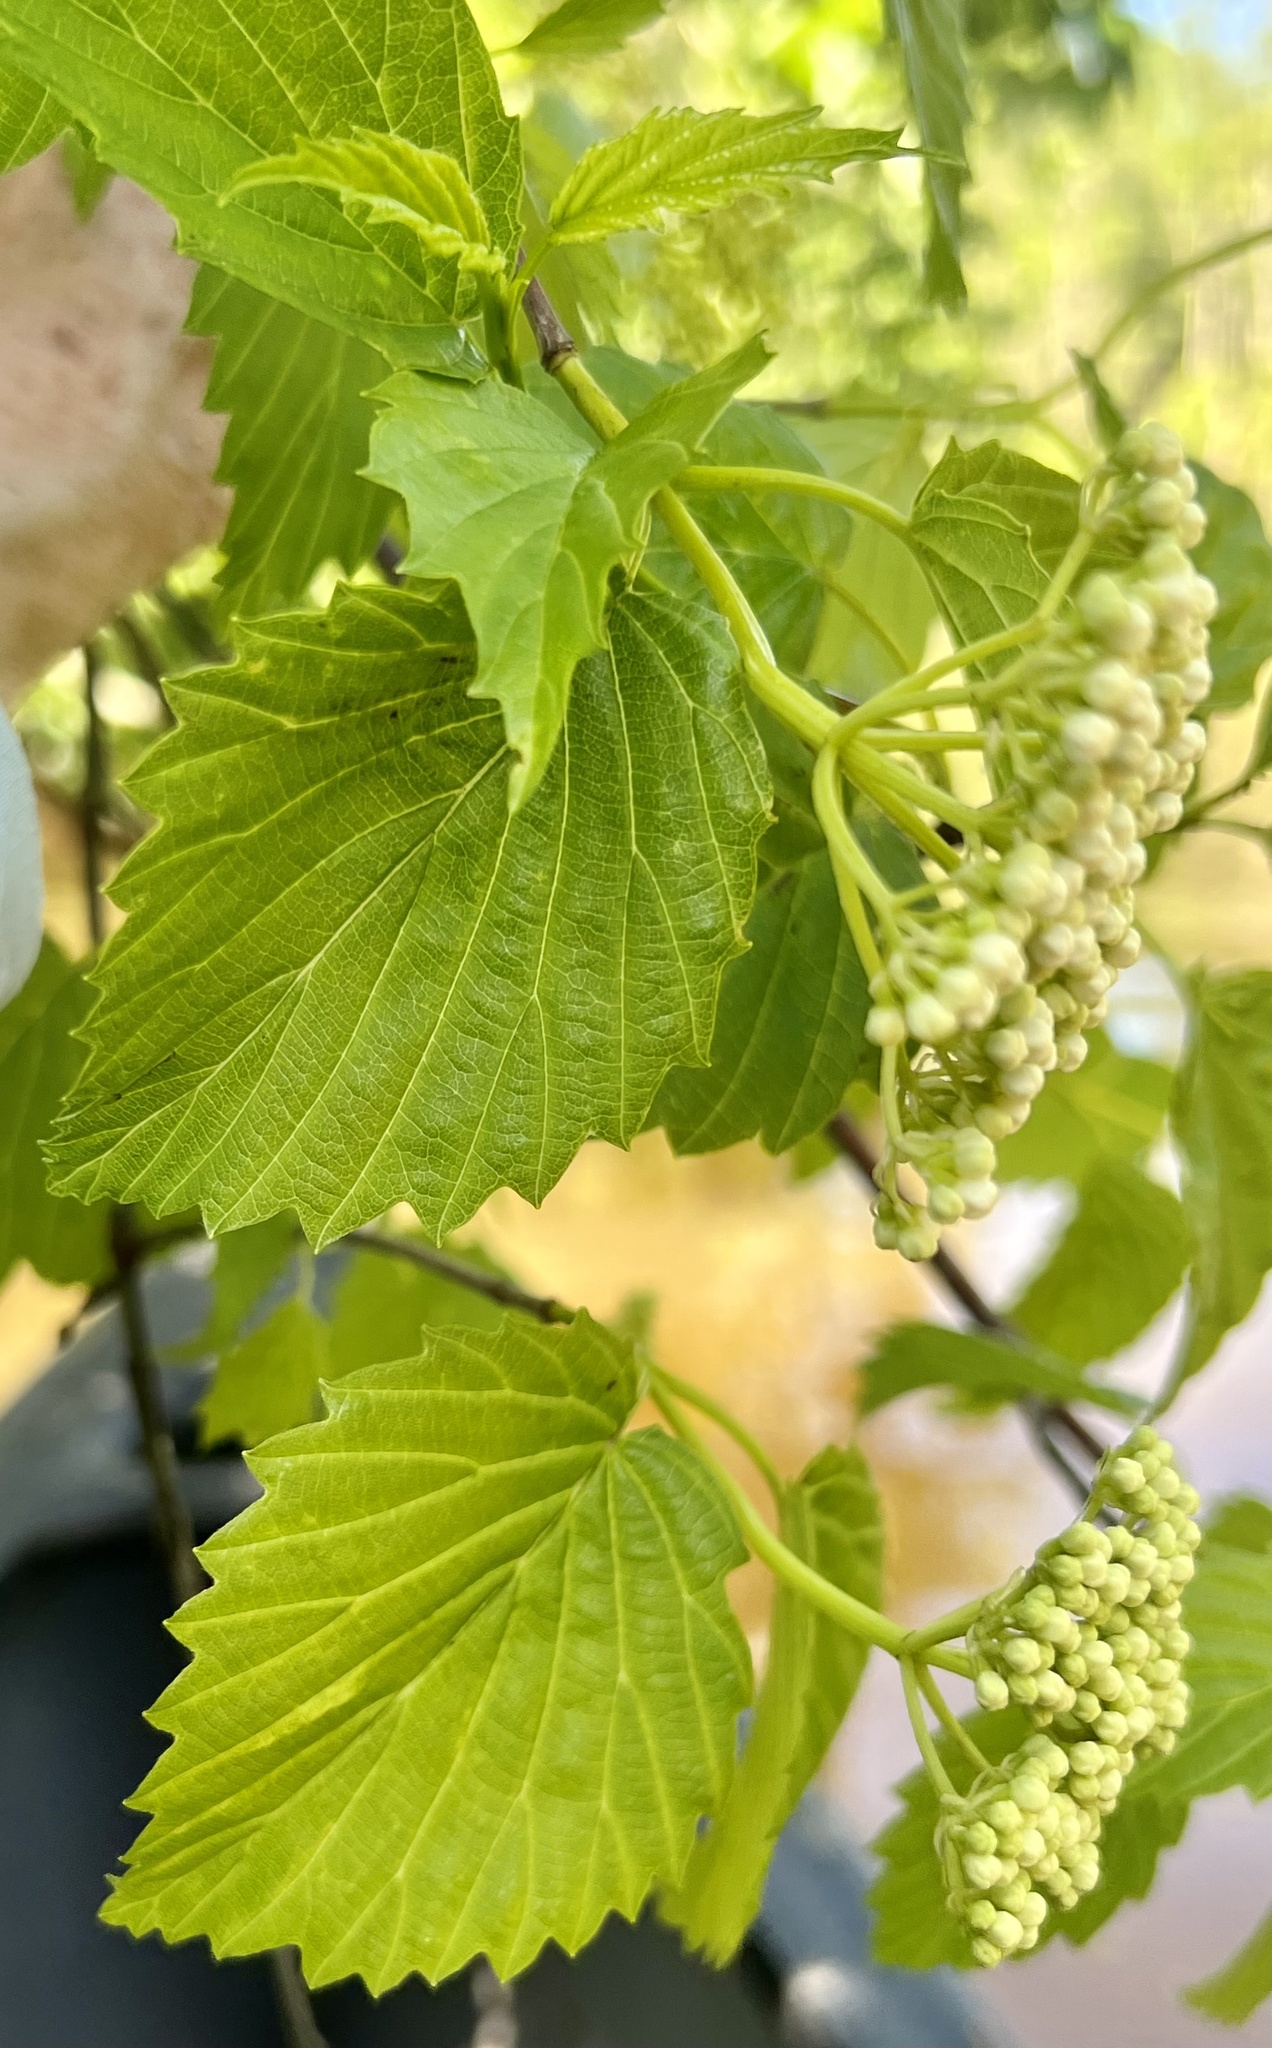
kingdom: Plantae
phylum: Tracheophyta
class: Magnoliopsida
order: Dipsacales
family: Viburnaceae
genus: Viburnum
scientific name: Viburnum recognitum
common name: Northern arrow-wood
